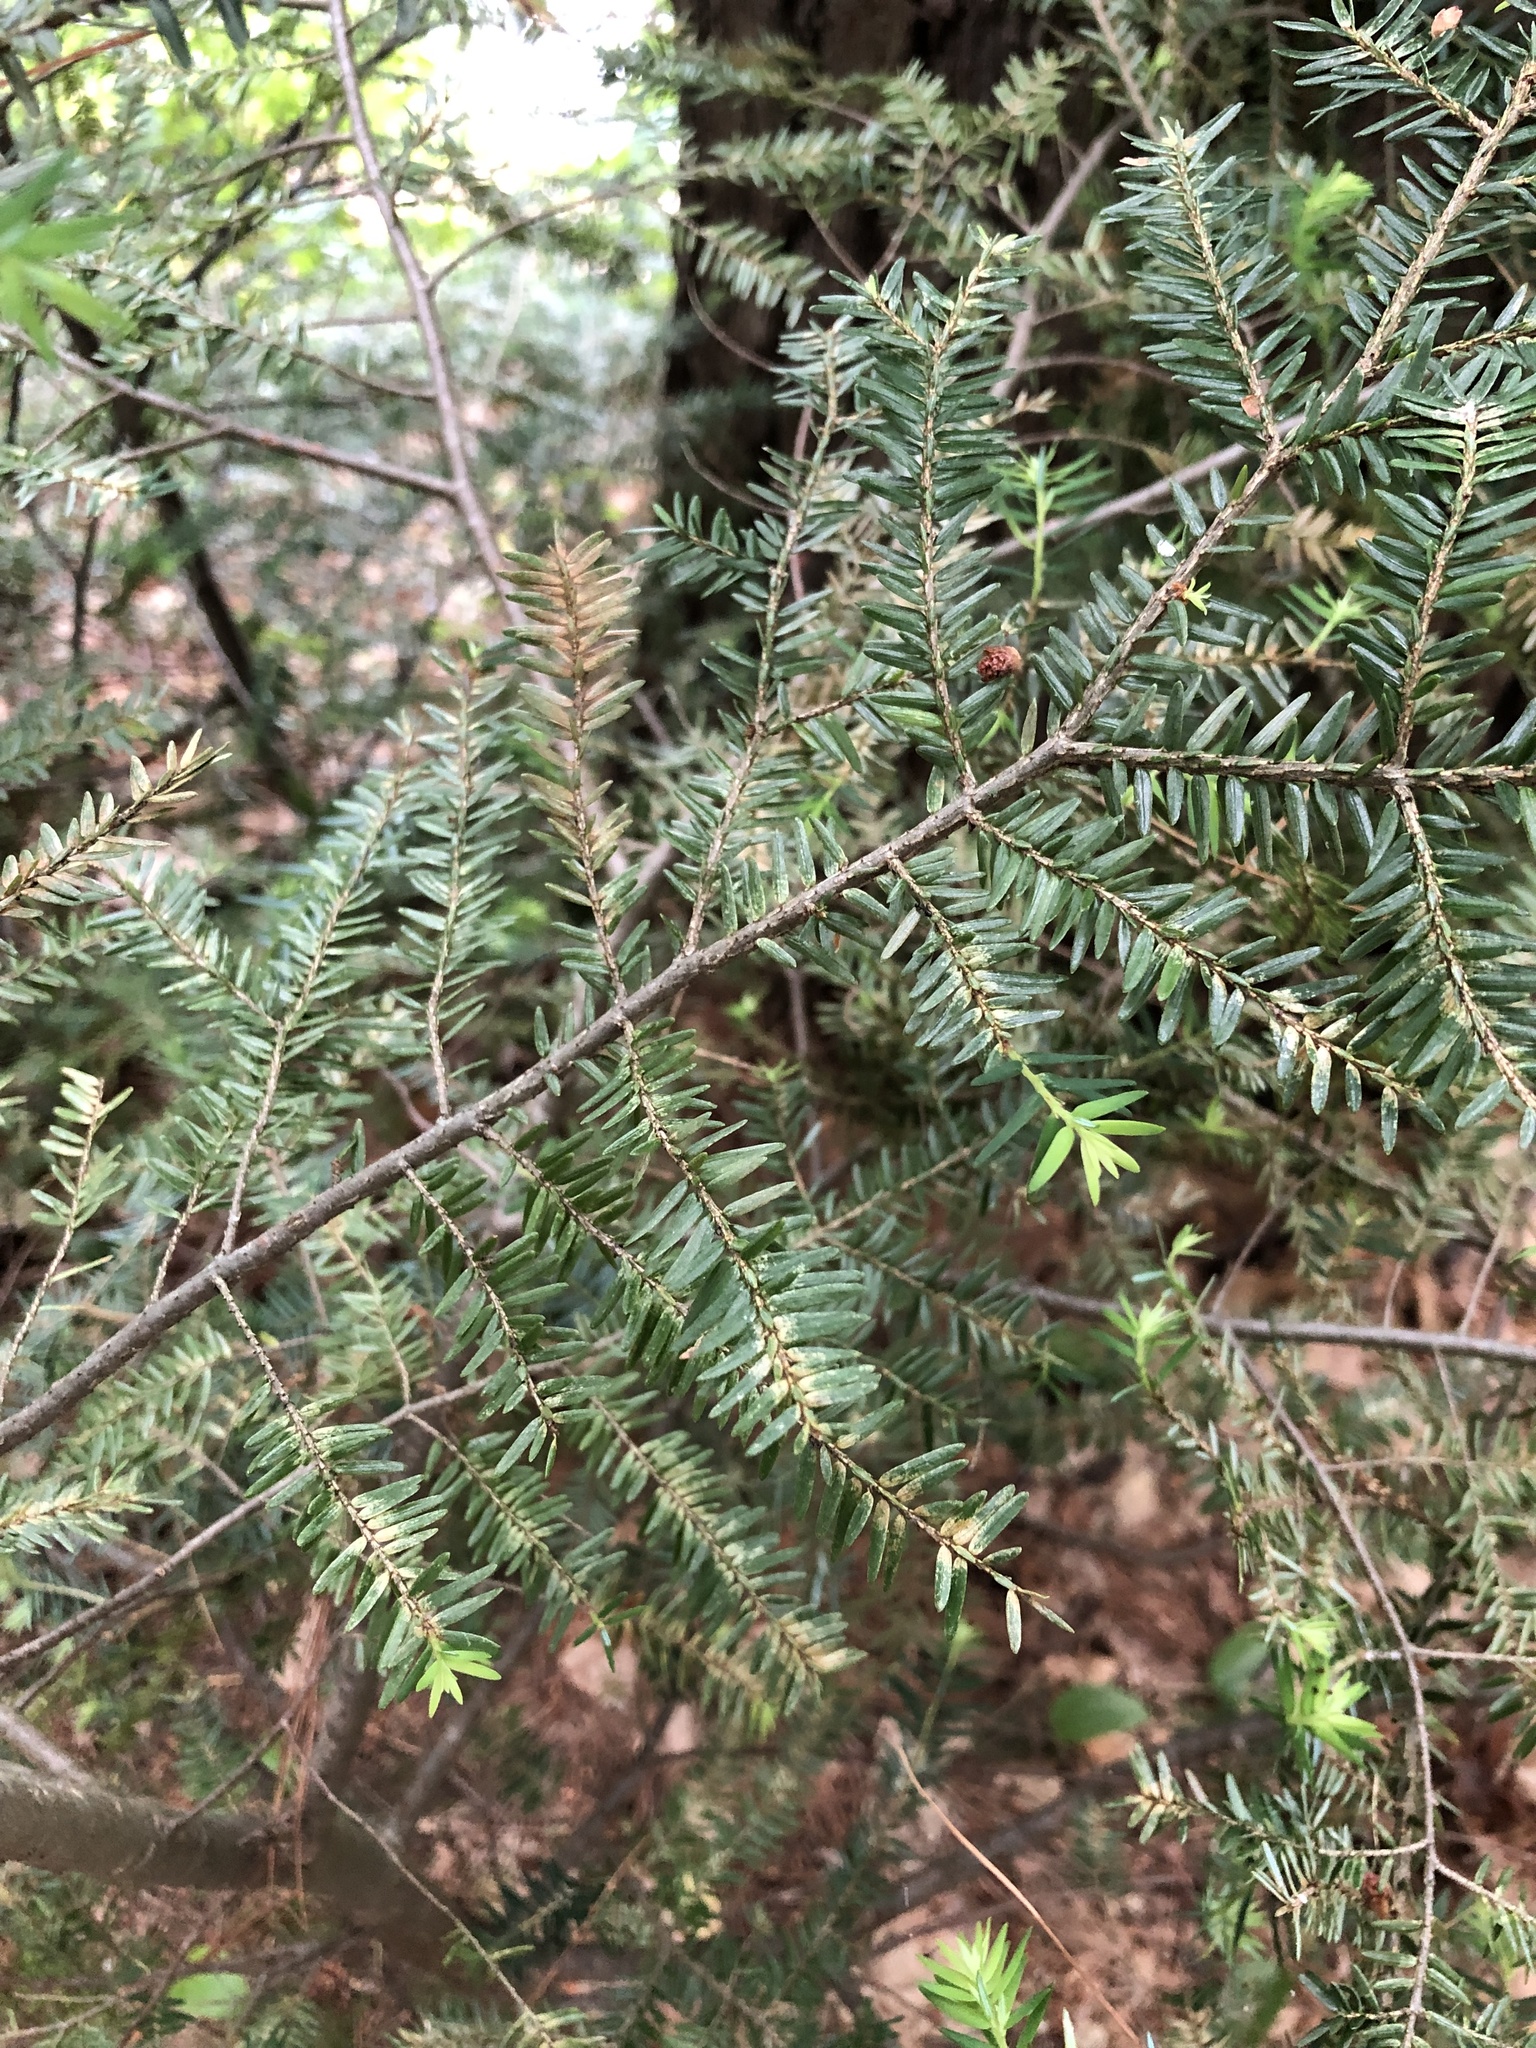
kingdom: Plantae
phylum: Tracheophyta
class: Pinopsida
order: Pinales
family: Pinaceae
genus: Tsuga
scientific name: Tsuga canadensis
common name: Eastern hemlock
